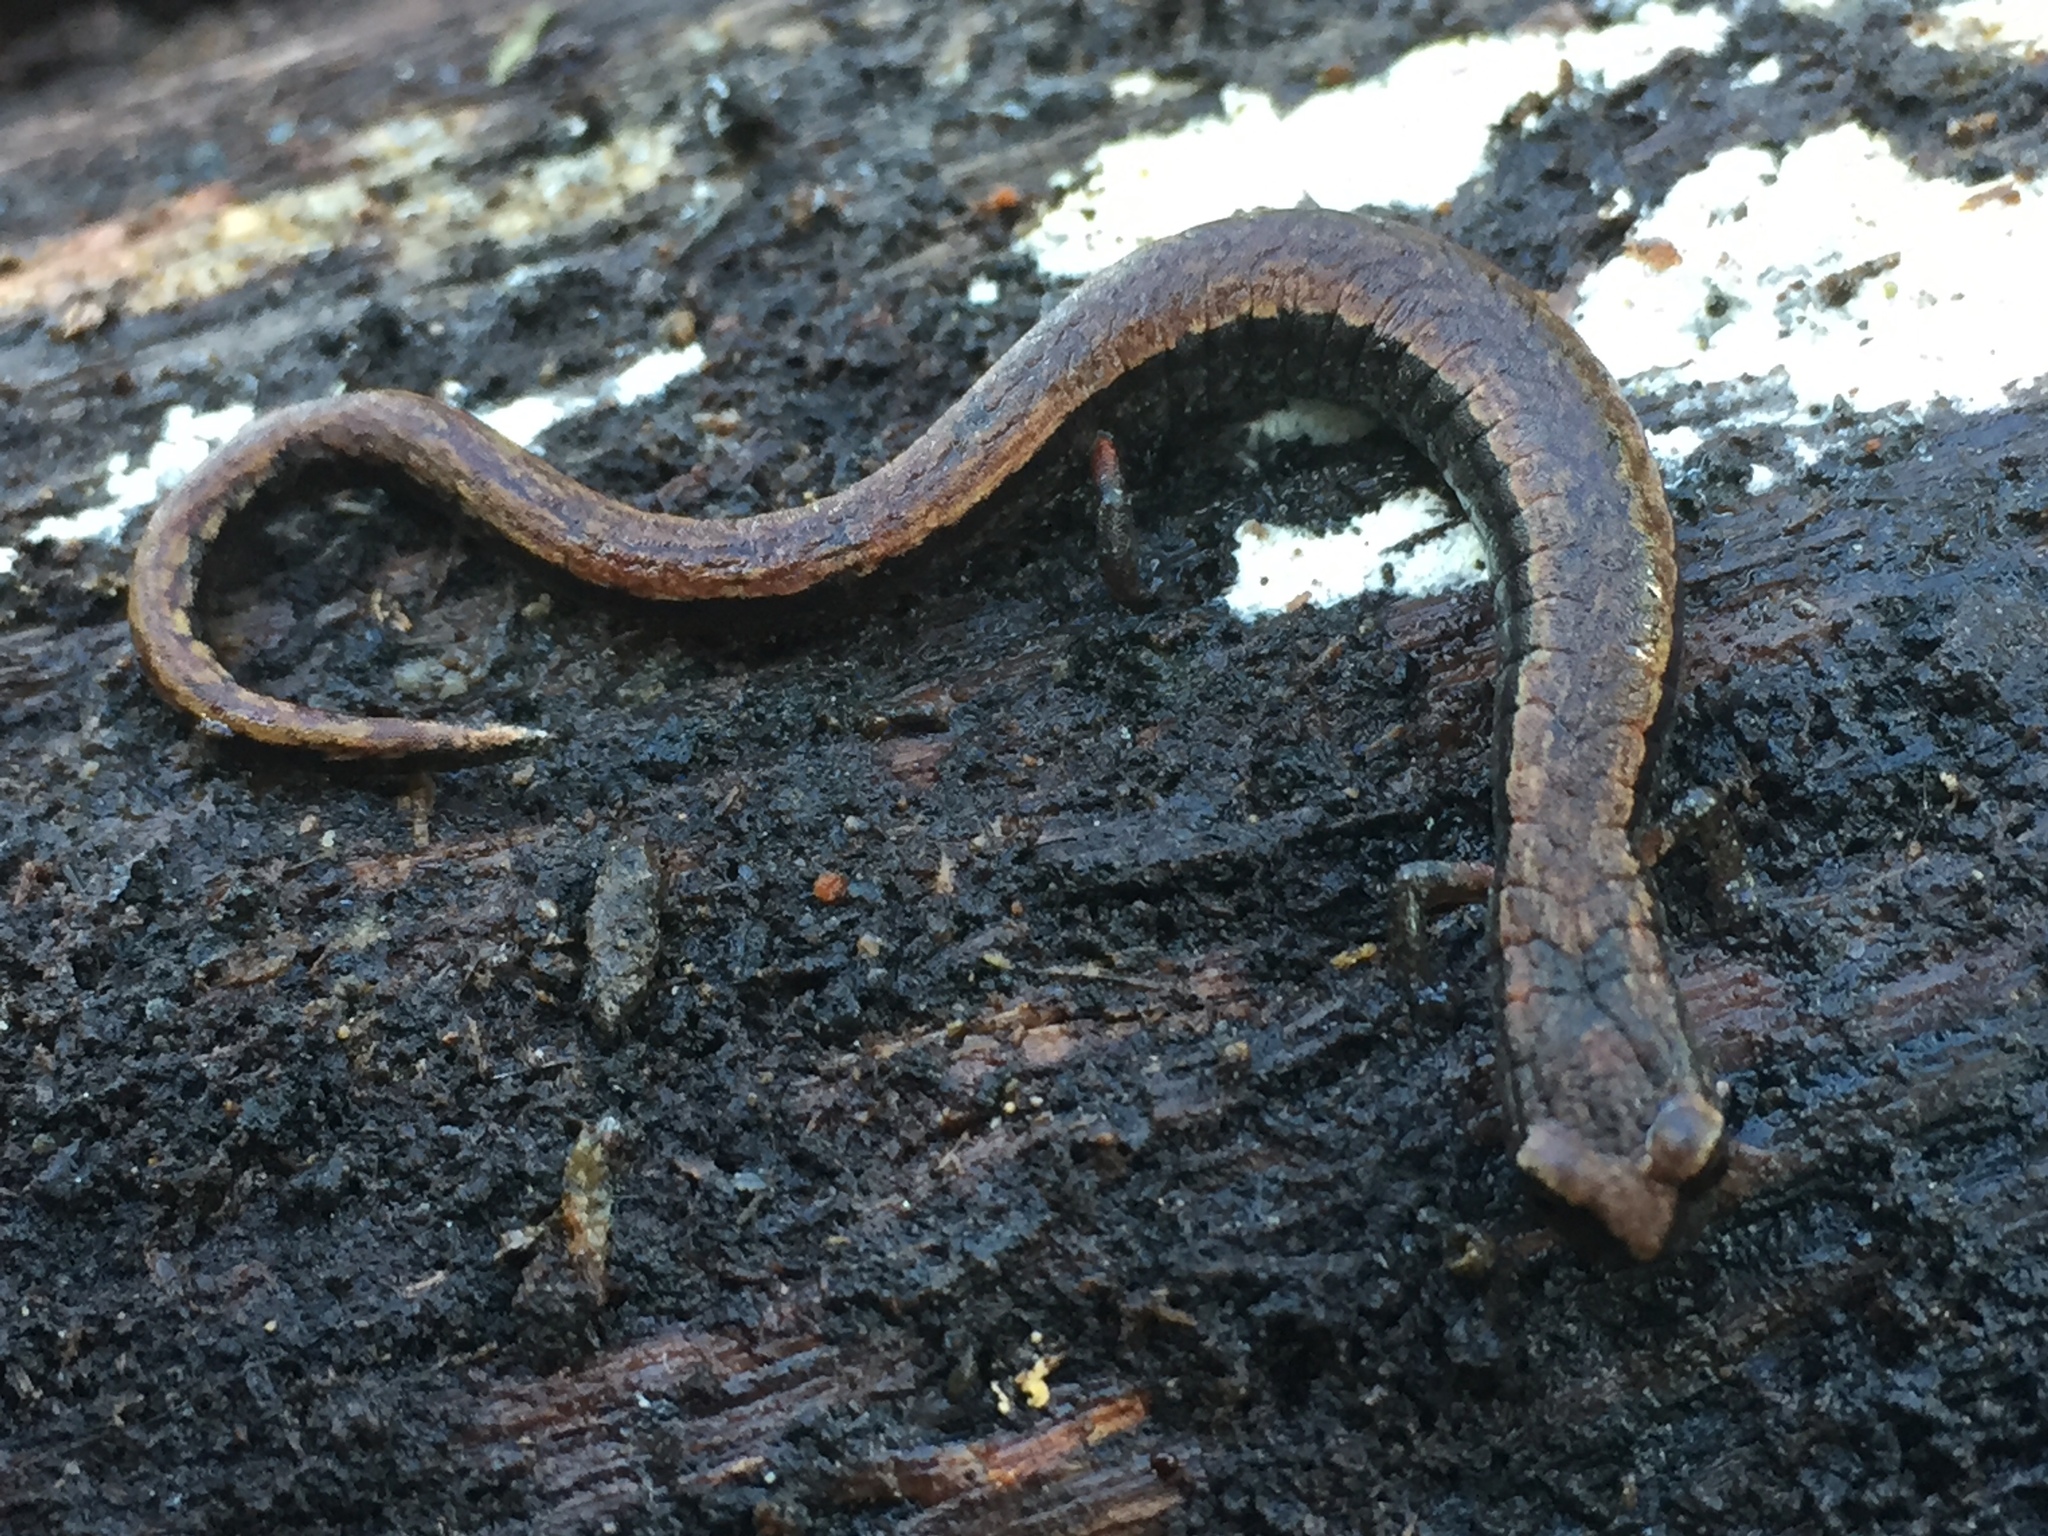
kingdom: Animalia
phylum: Chordata
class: Amphibia
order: Caudata
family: Plethodontidae
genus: Batrachoseps
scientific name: Batrachoseps attenuatus
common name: California slender salamander
